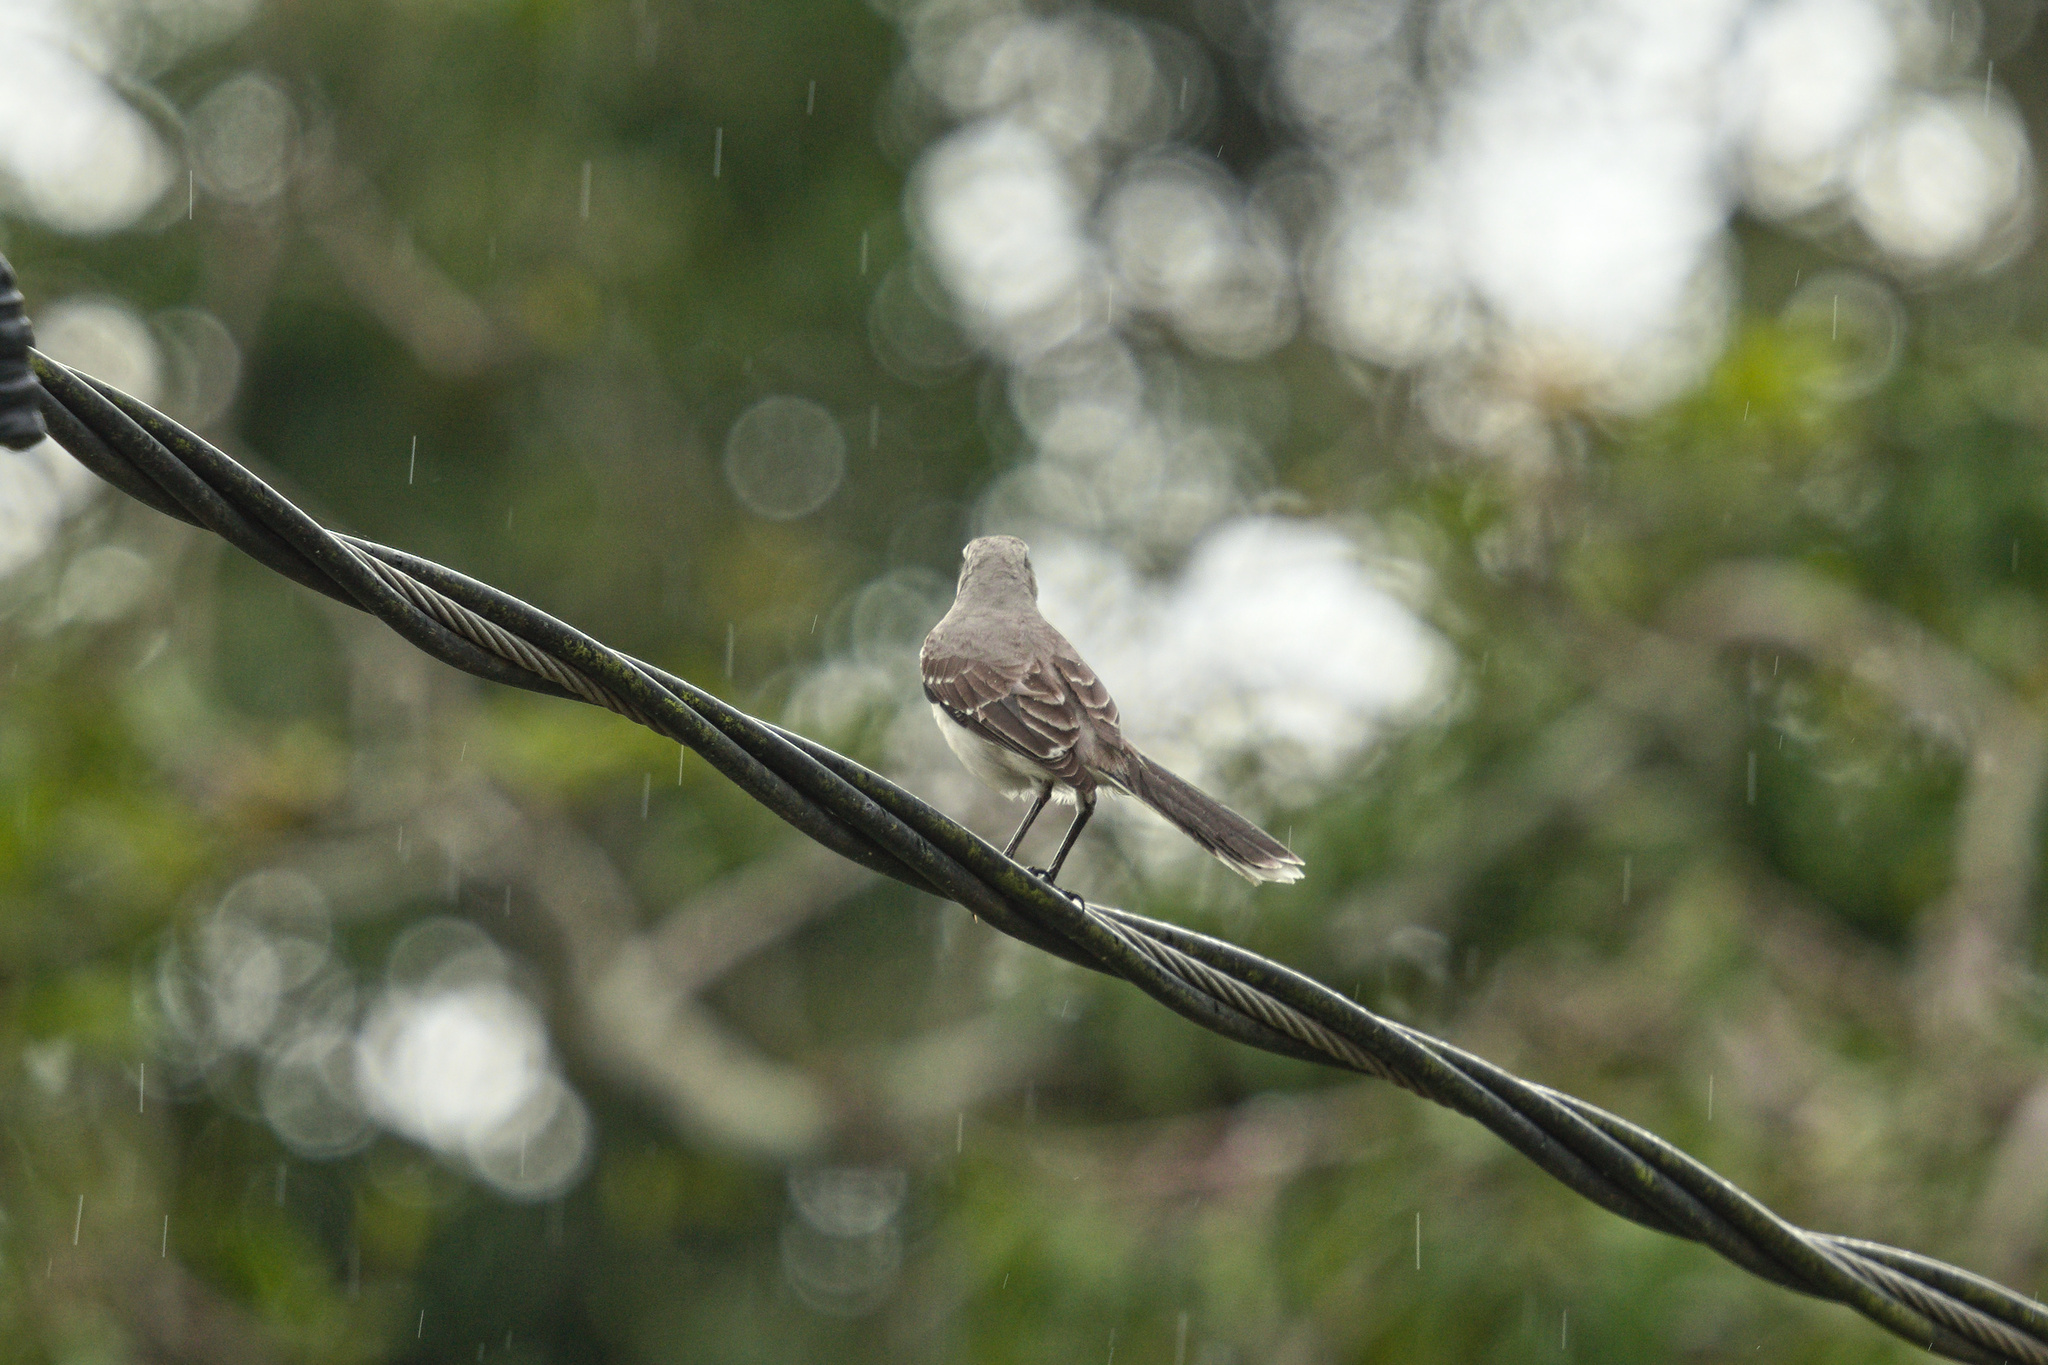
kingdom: Animalia
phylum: Chordata
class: Aves
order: Passeriformes
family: Mimidae
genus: Mimus
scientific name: Mimus gilvus
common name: Tropical mockingbird
